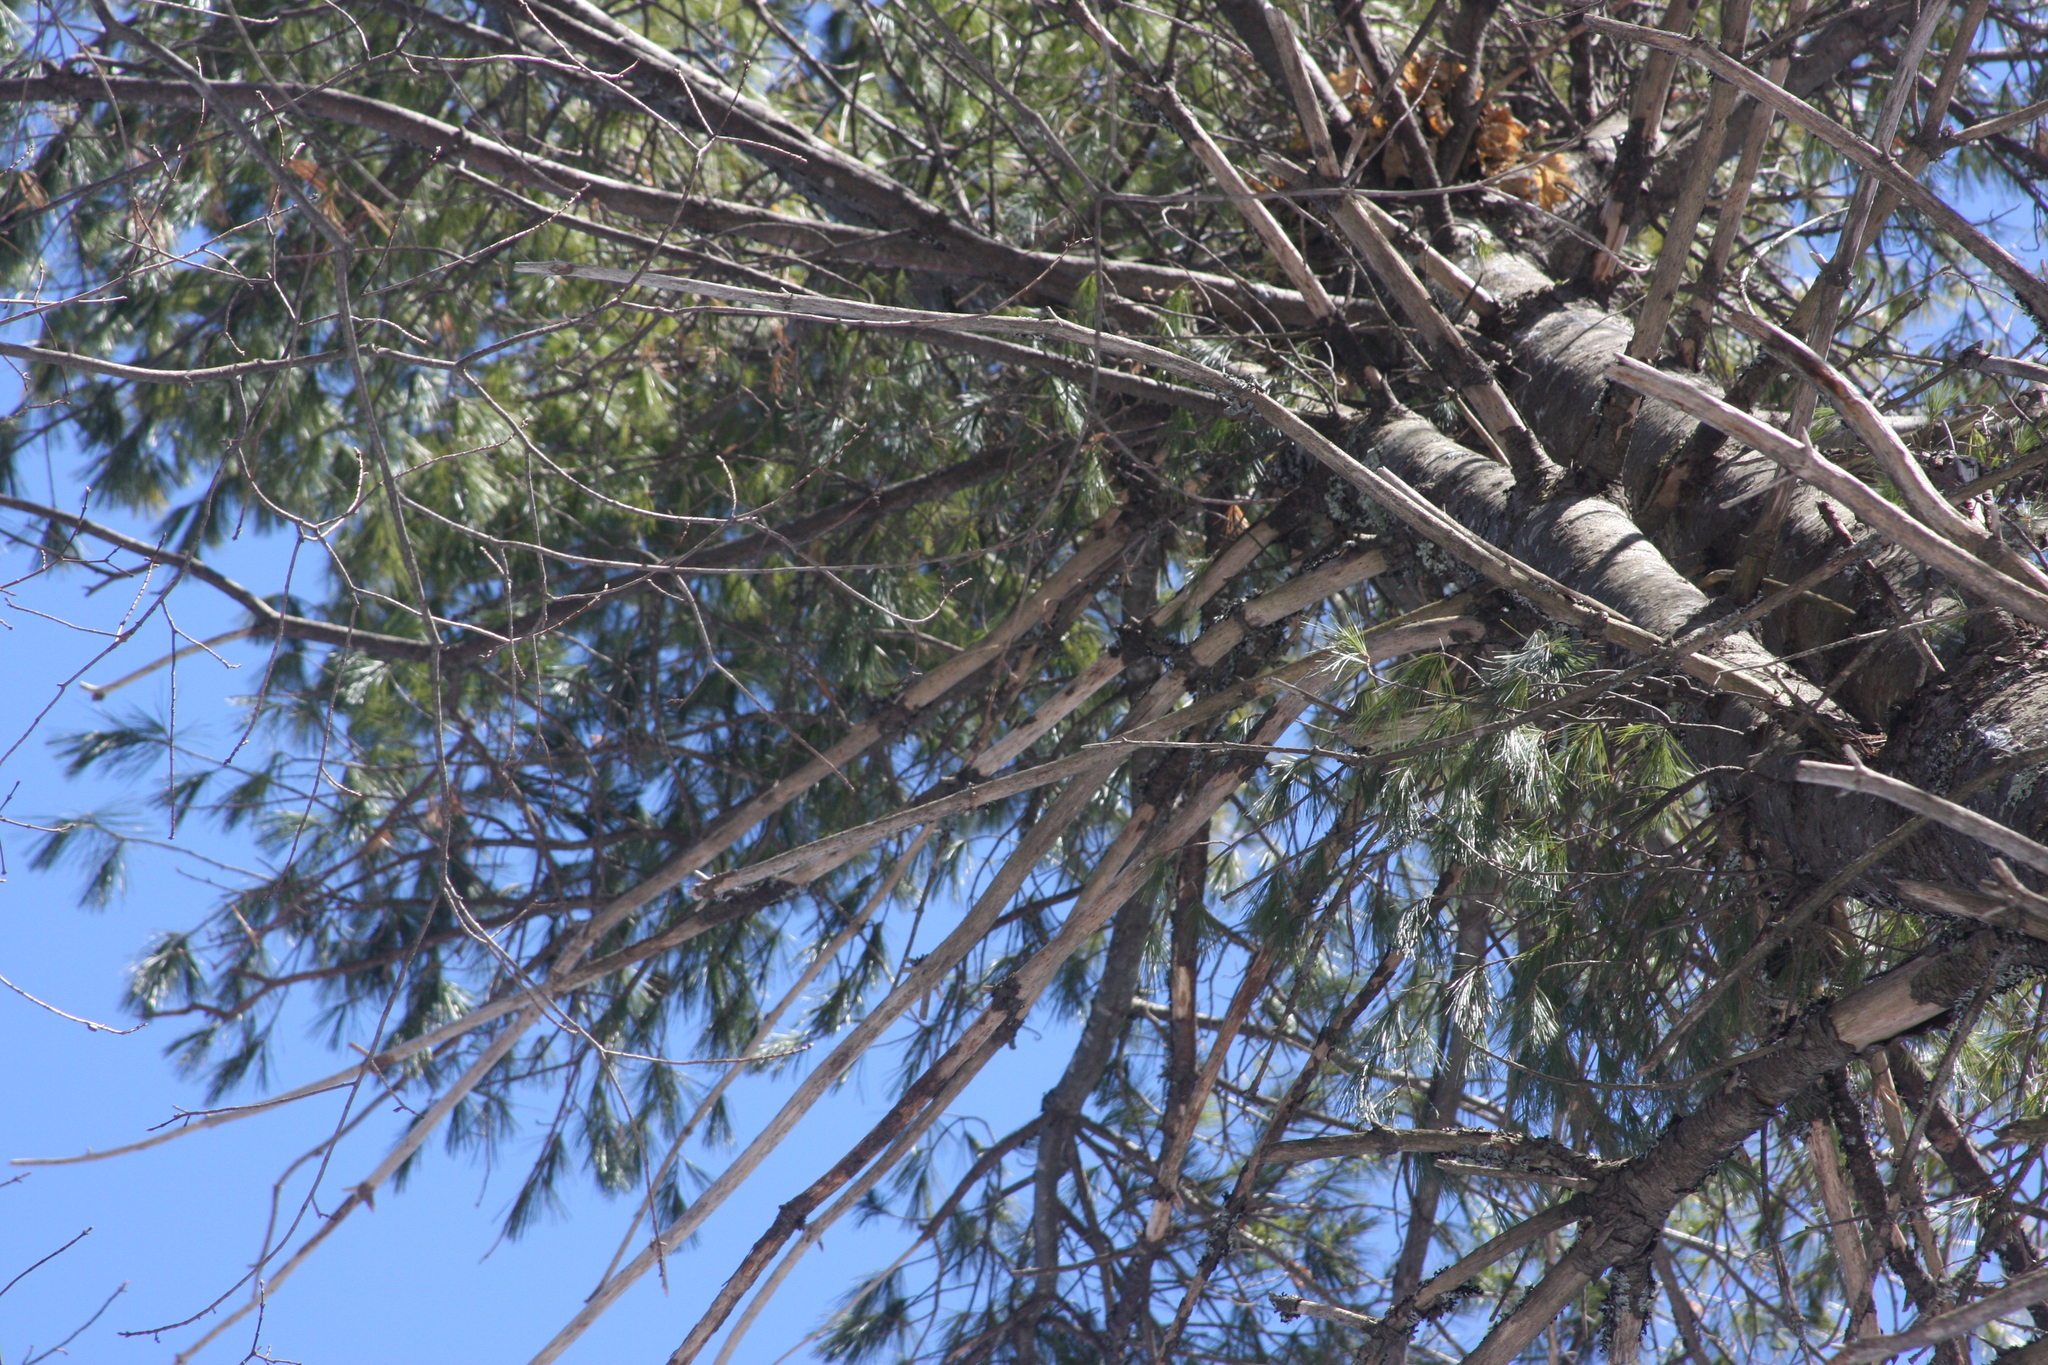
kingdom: Plantae
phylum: Tracheophyta
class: Pinopsida
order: Pinales
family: Pinaceae
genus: Pinus
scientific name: Pinus strobus
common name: Weymouth pine
